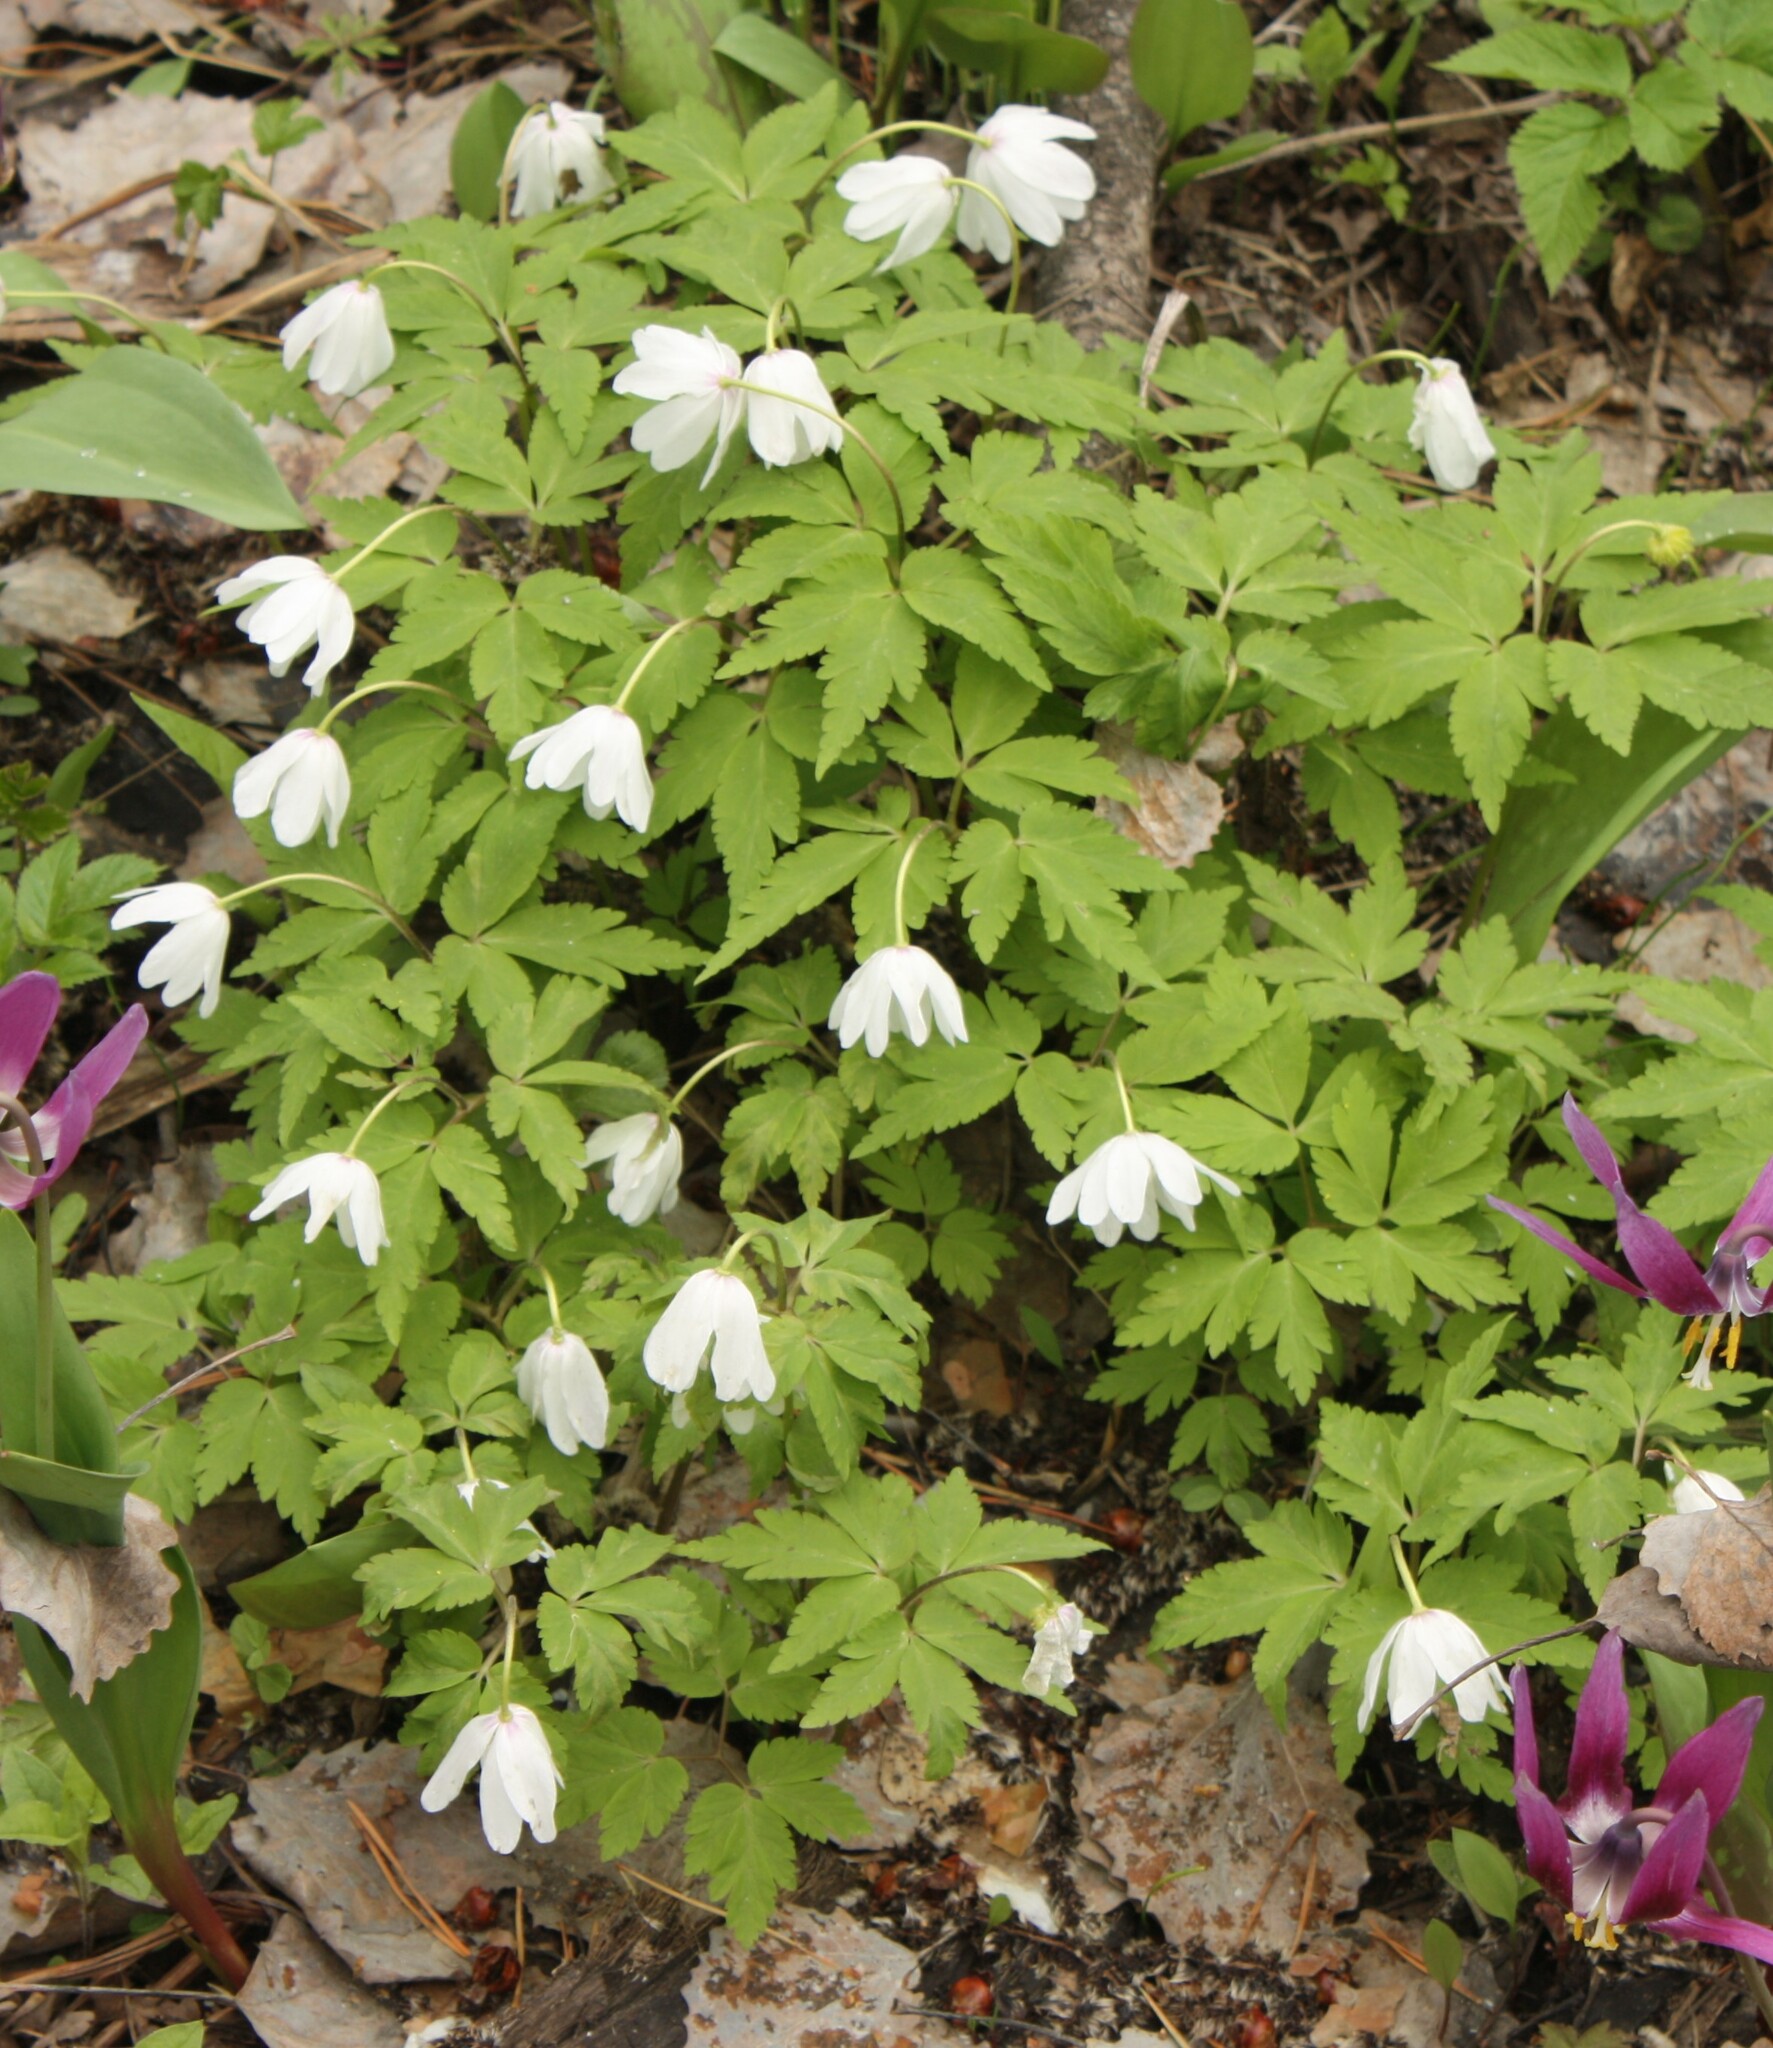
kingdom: Plantae
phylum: Tracheophyta
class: Magnoliopsida
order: Ranunculales
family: Ranunculaceae
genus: Anemone
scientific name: Anemone altaica
